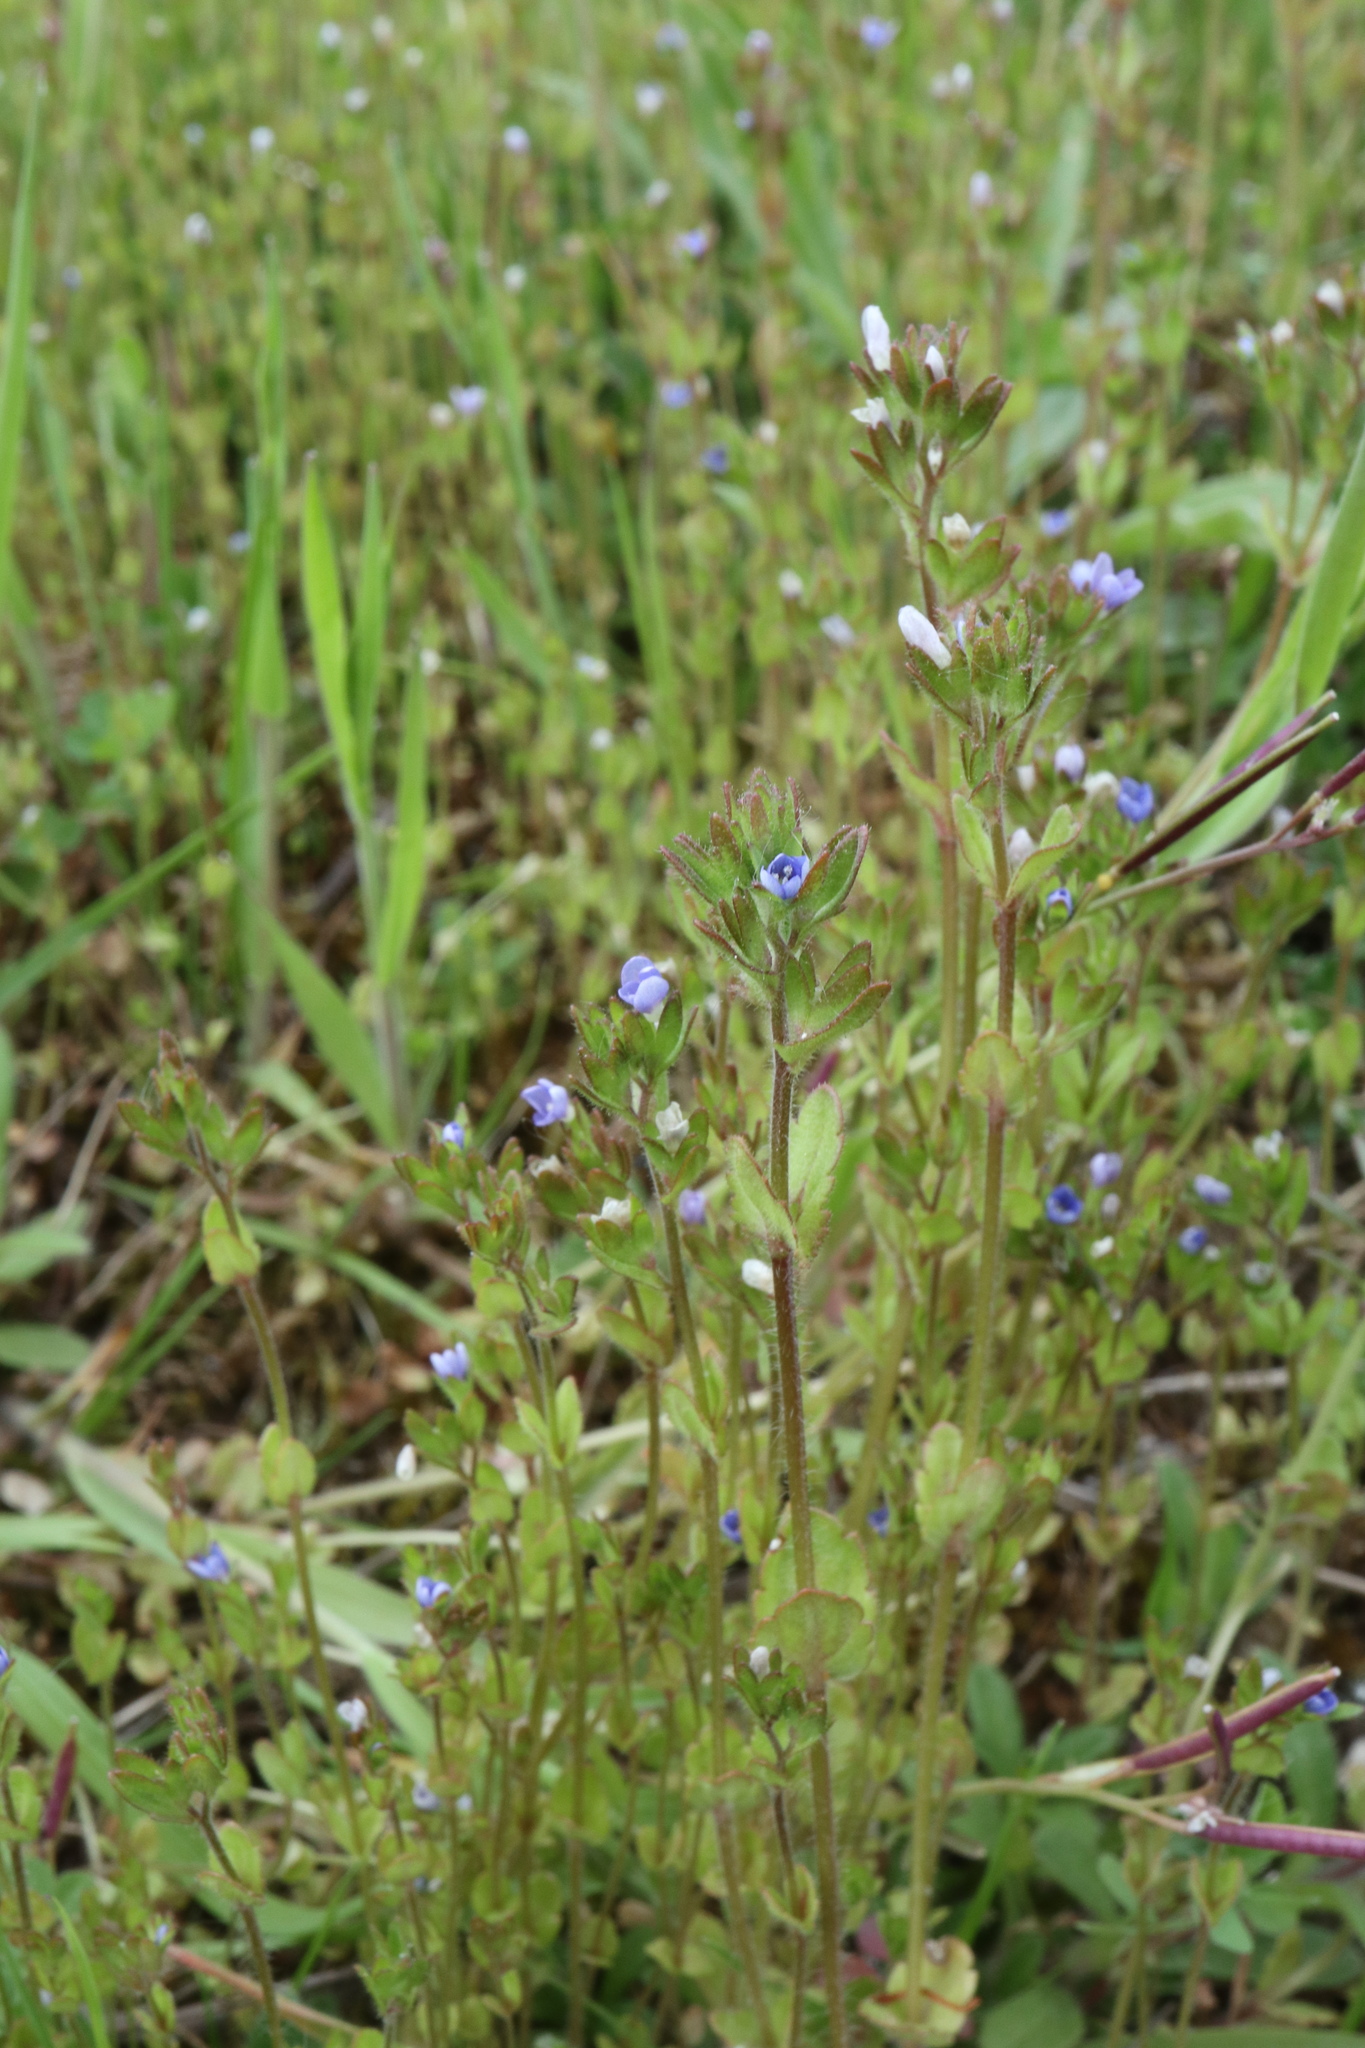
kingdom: Plantae
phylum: Tracheophyta
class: Magnoliopsida
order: Lamiales
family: Plantaginaceae
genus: Veronica
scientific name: Veronica arvensis
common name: Corn speedwell
